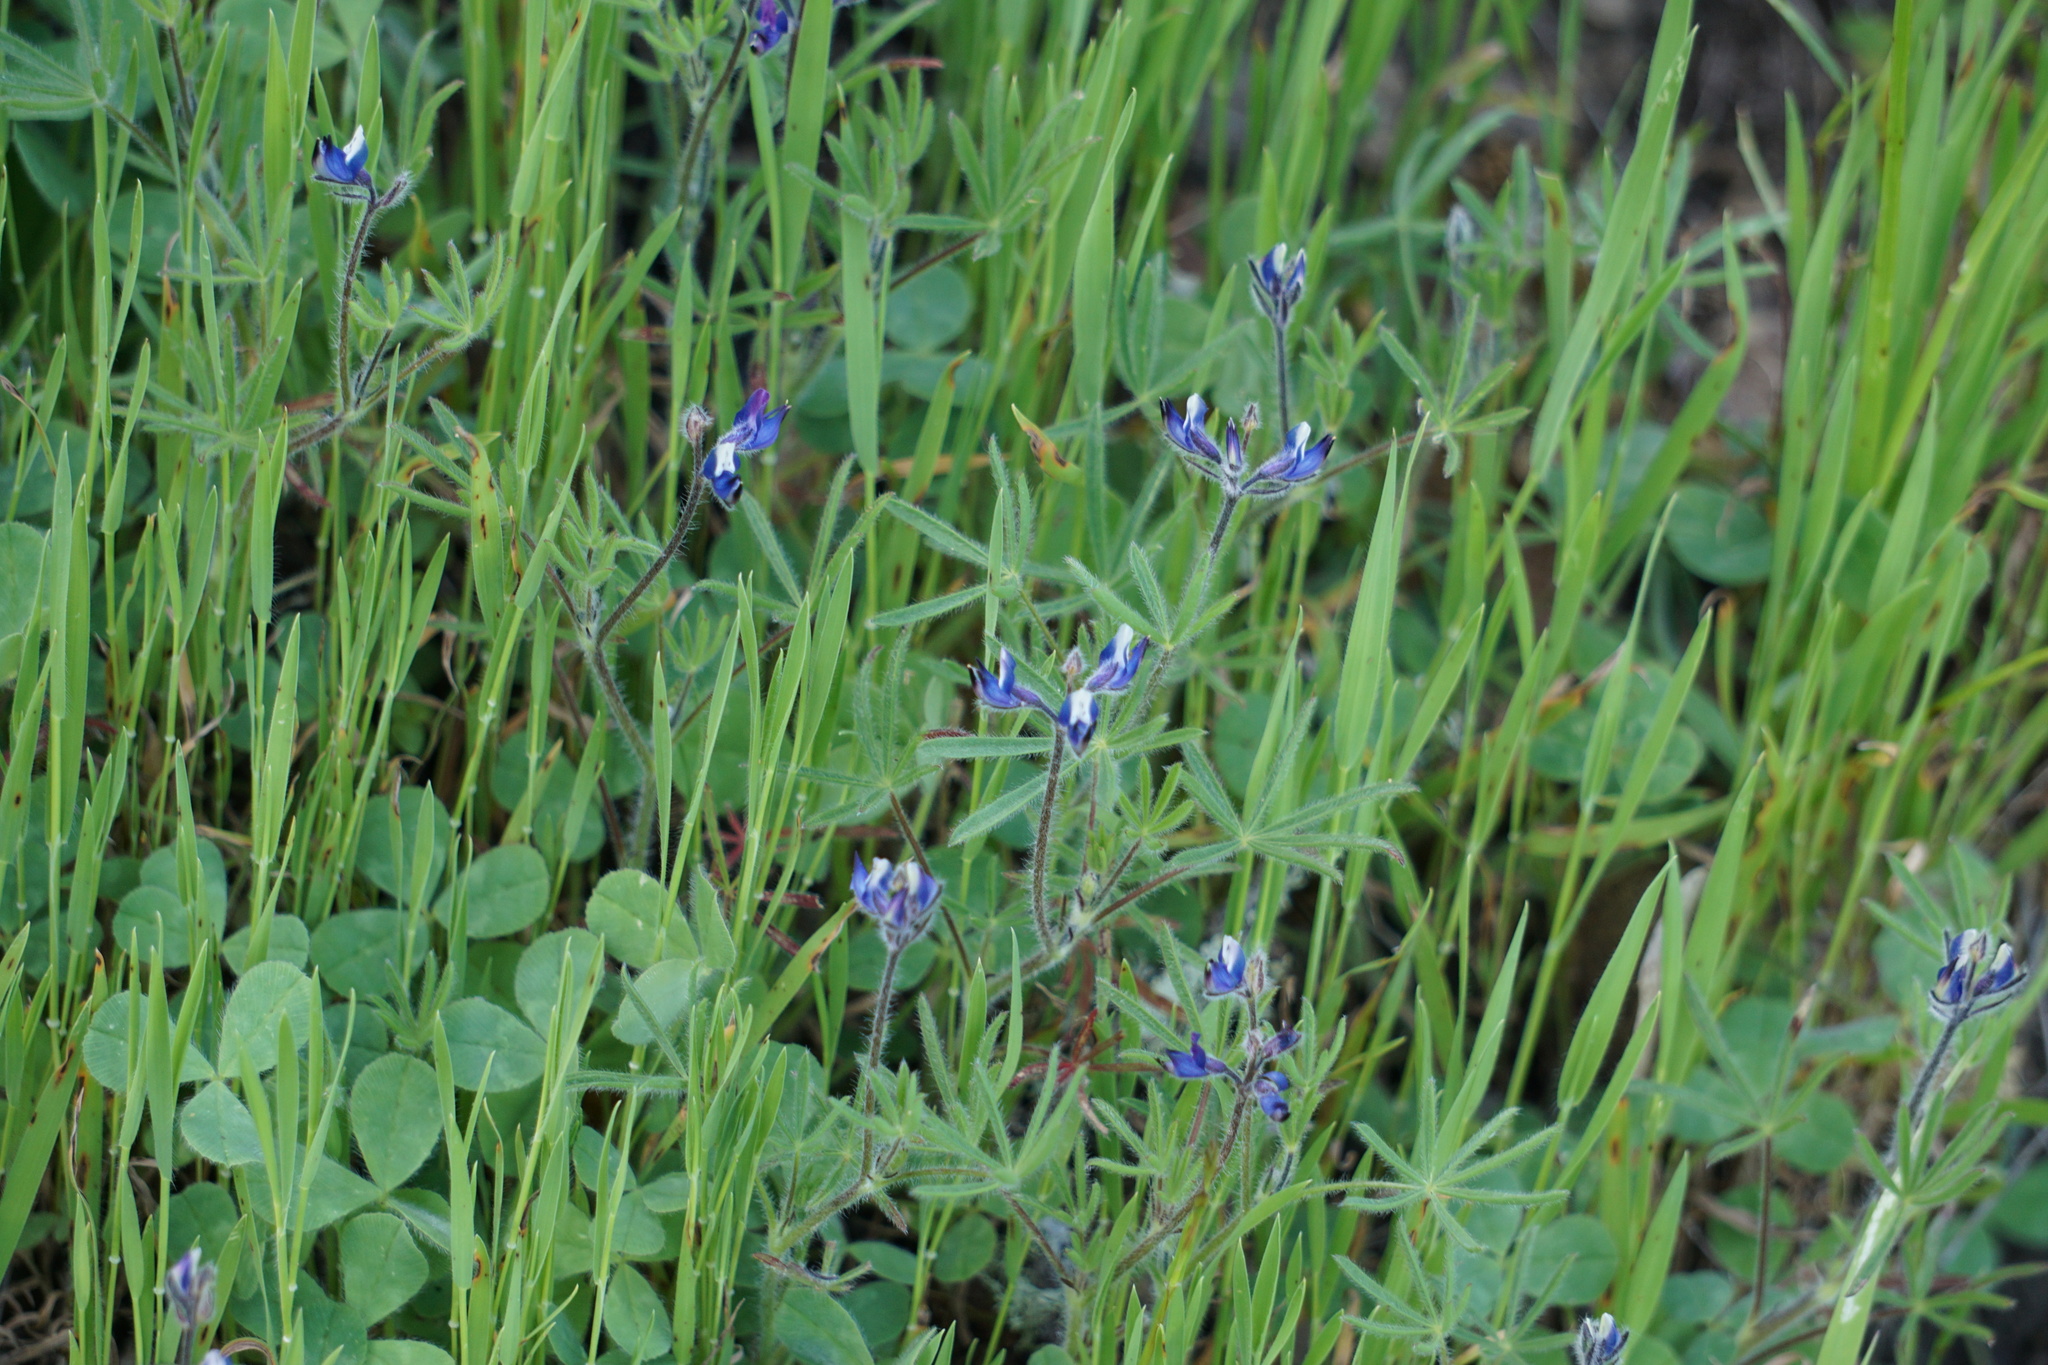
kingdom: Plantae
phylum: Tracheophyta
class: Magnoliopsida
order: Fabales
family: Fabaceae
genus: Lupinus
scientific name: Lupinus bicolor
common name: Miniature lupine
